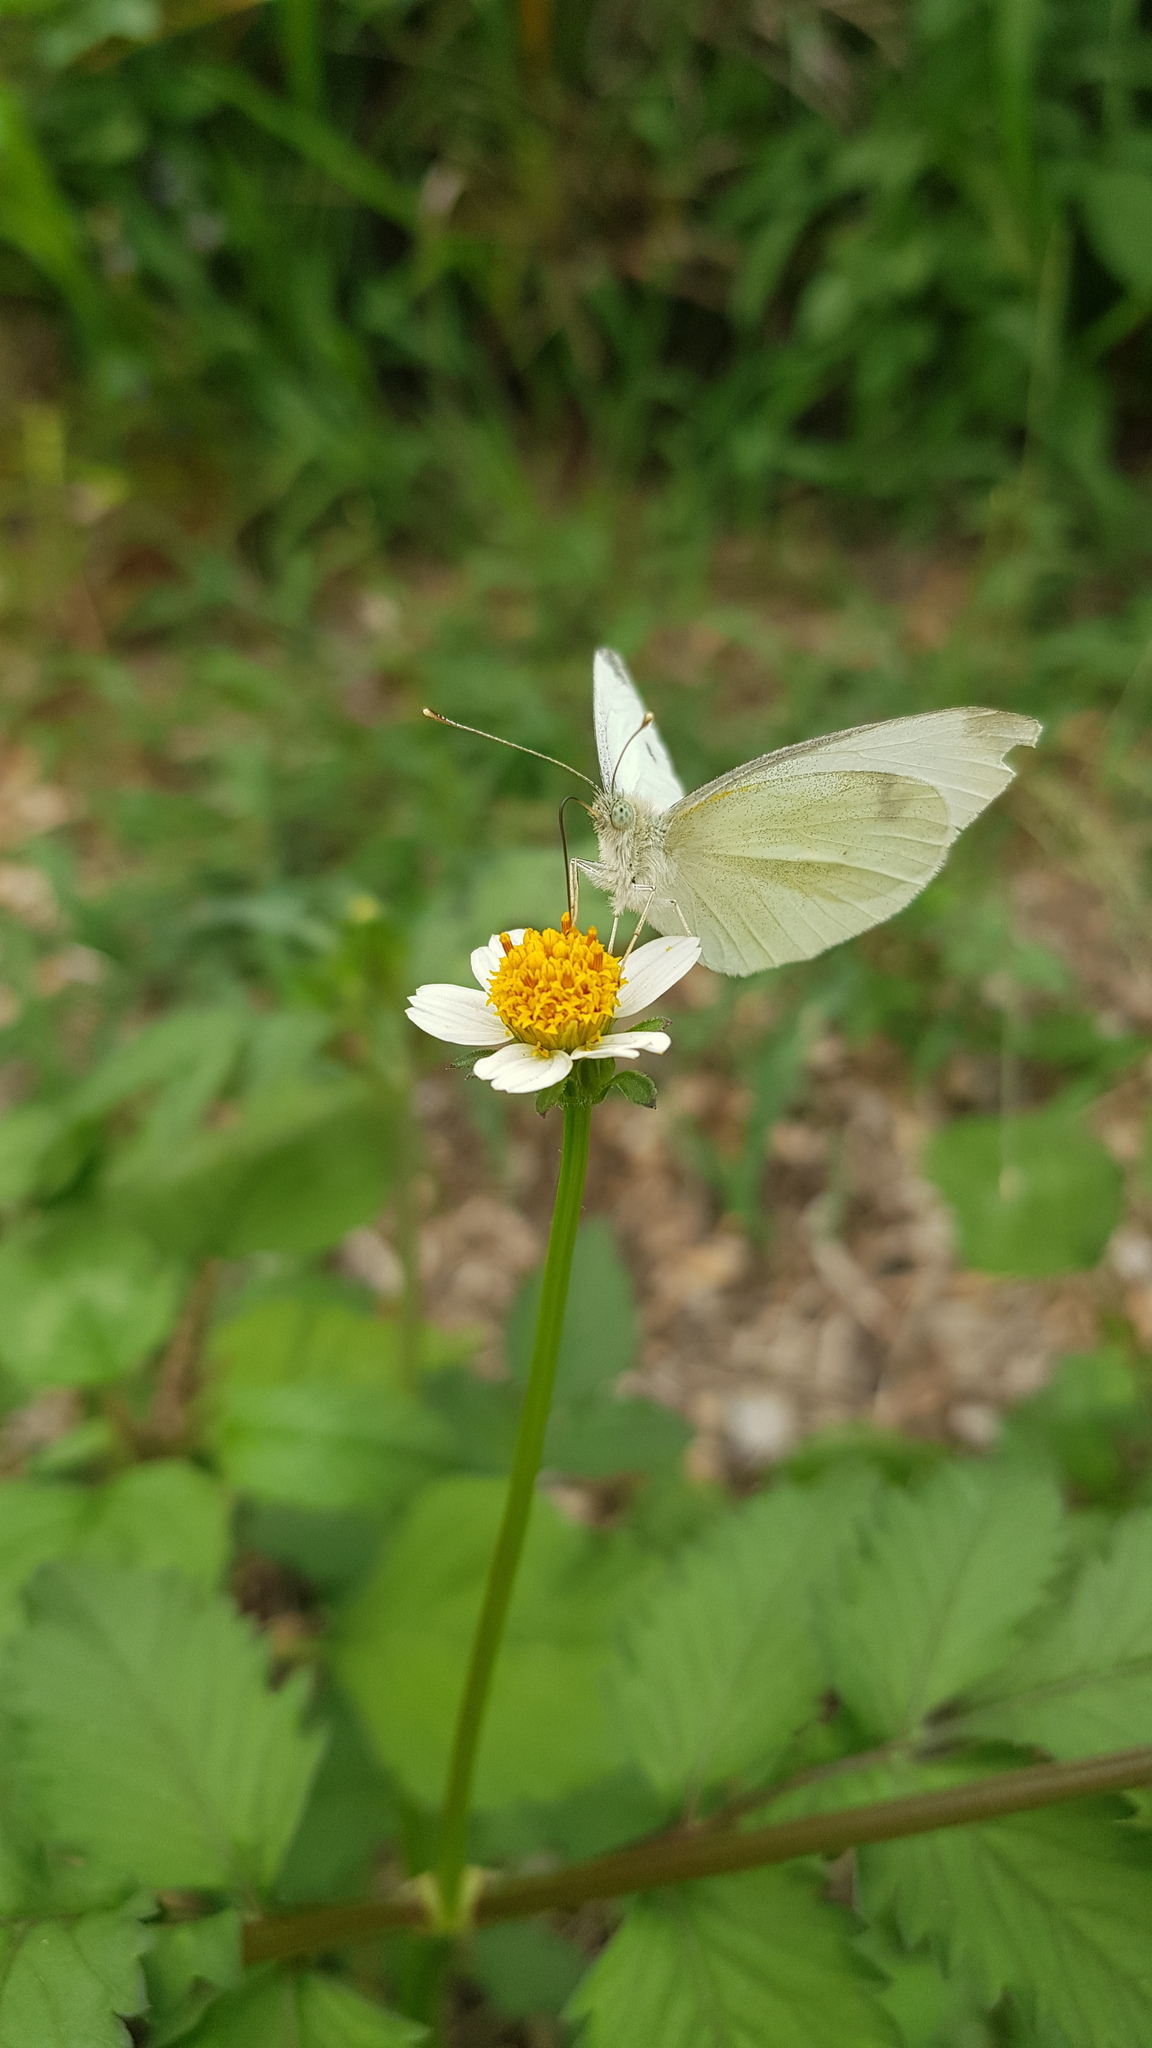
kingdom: Animalia
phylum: Arthropoda
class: Insecta
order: Lepidoptera
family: Pieridae
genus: Pieris
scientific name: Pieris rapae
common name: Small white
